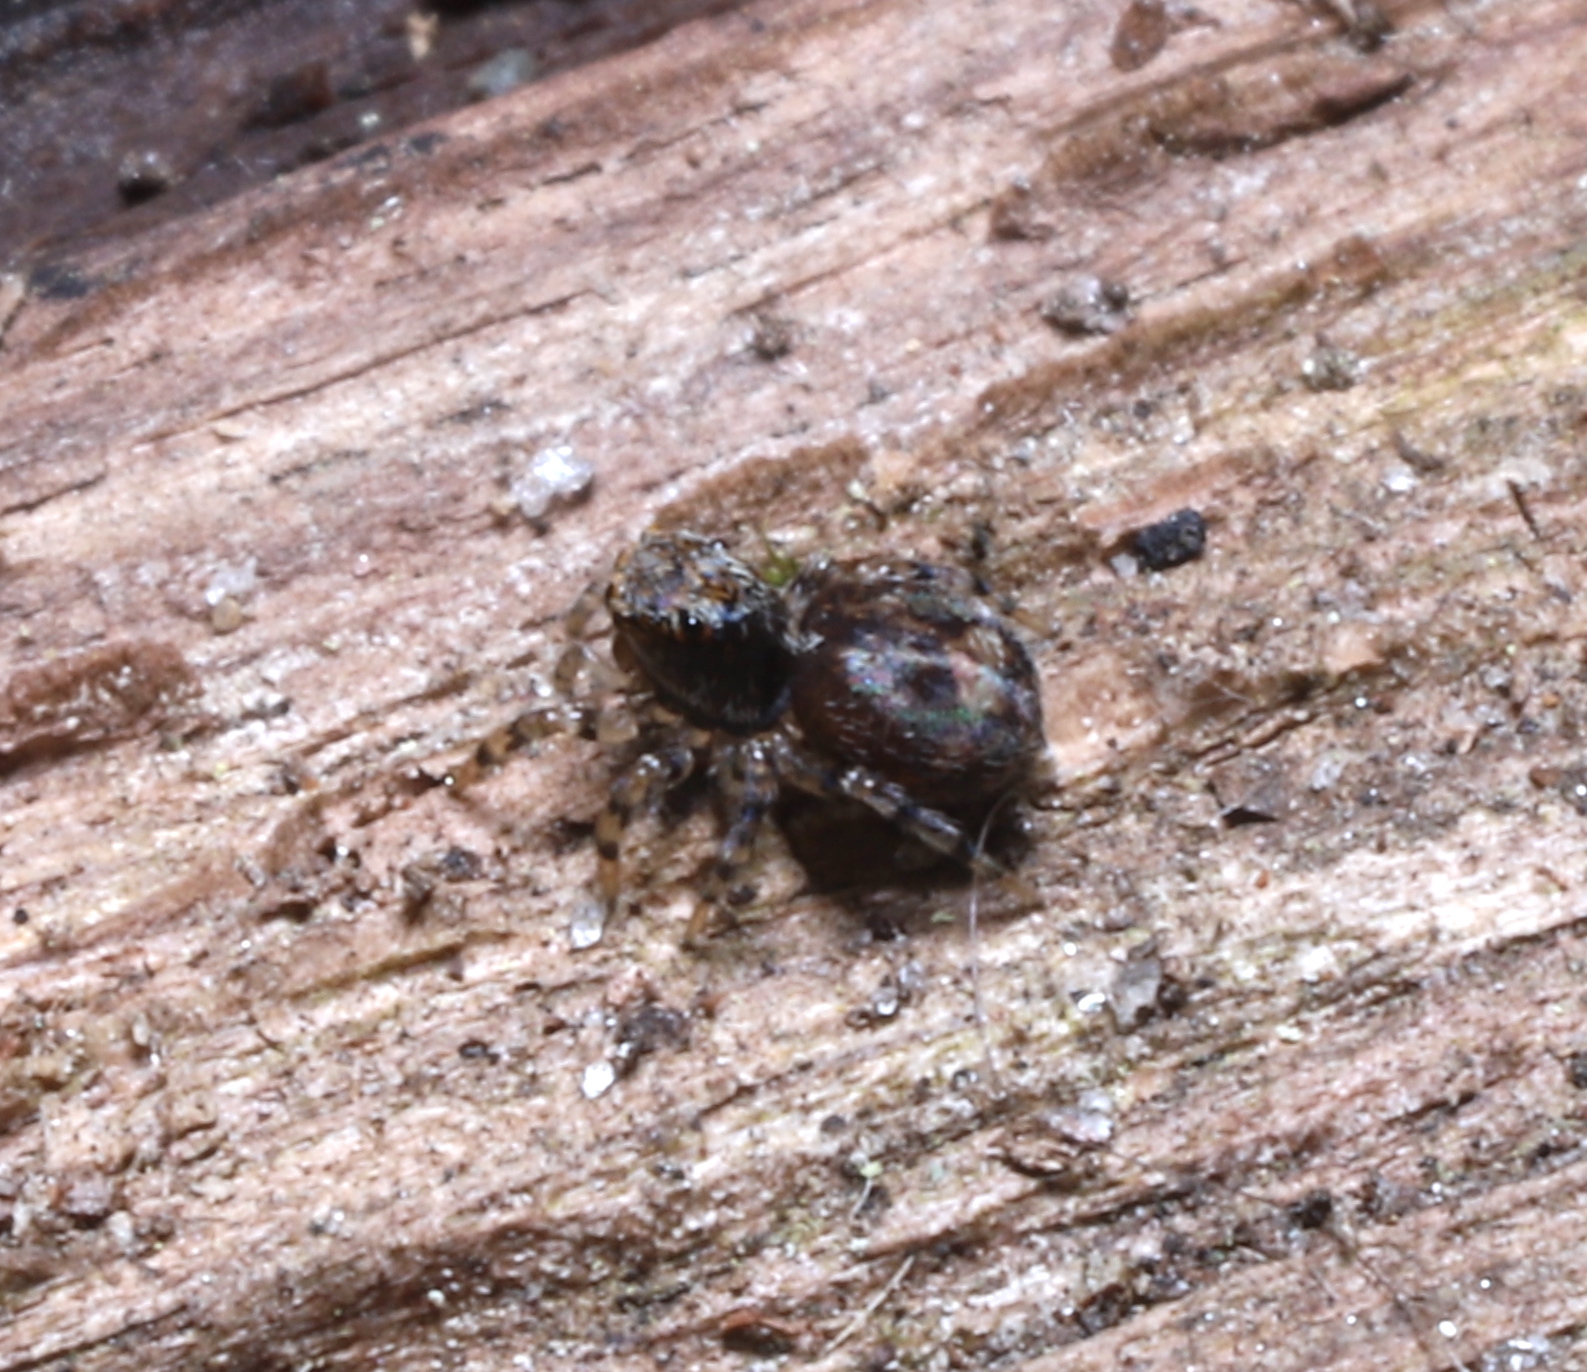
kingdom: Animalia
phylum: Arthropoda
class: Arachnida
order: Araneae
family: Salticidae
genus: Naphrys
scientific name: Naphrys pulex
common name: Flea jumping spider
